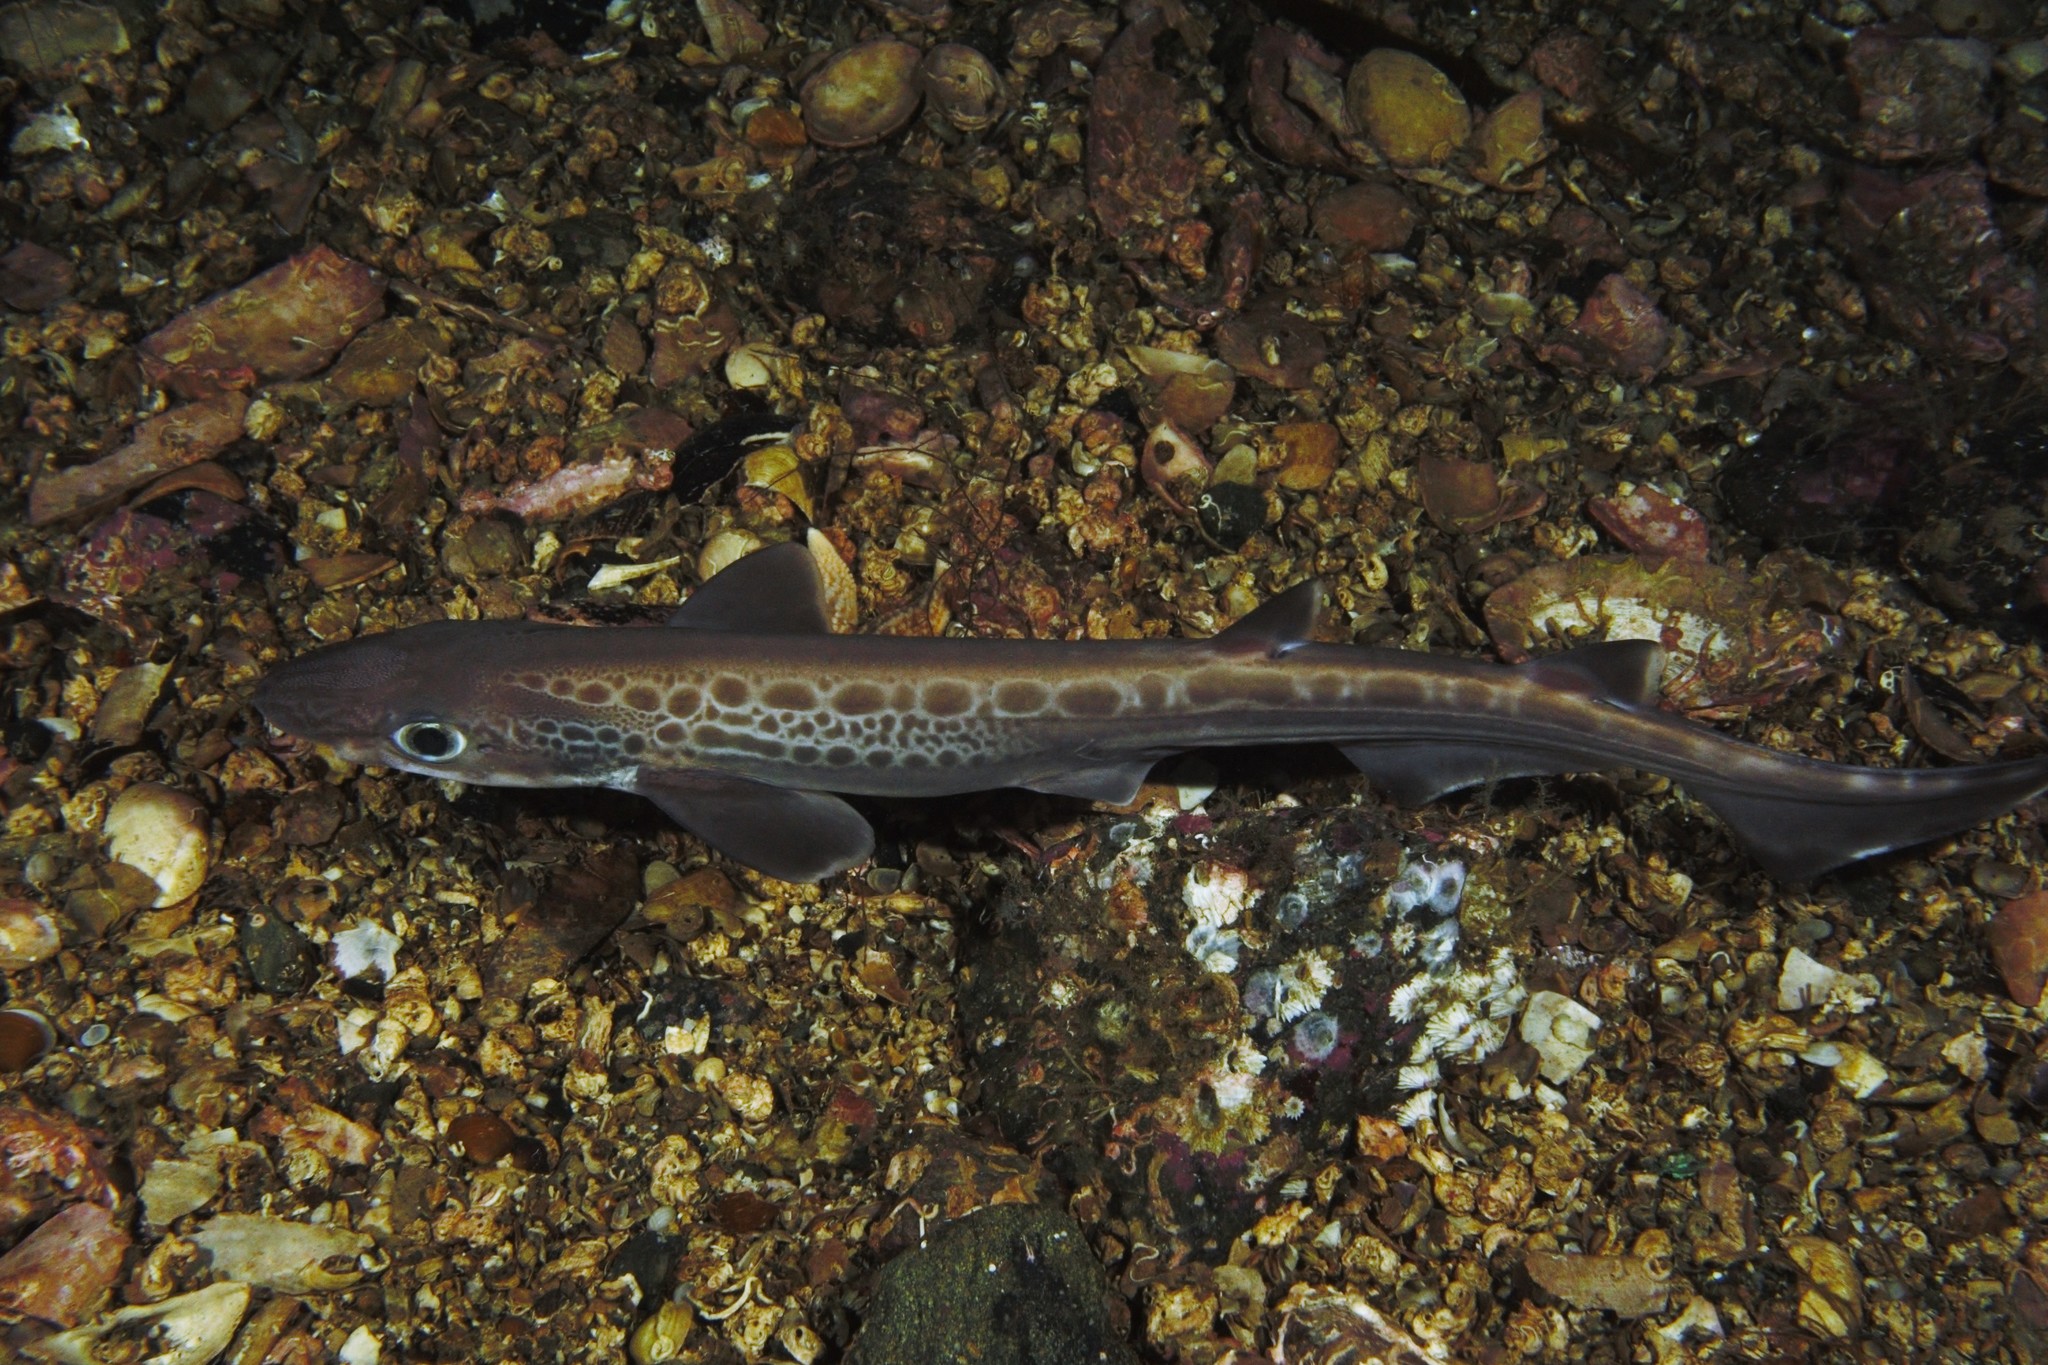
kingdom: Animalia
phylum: Chordata
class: Elasmobranchii
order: Carcharhiniformes
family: Scyliorhinidae
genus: Galeus
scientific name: Galeus melastomus
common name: Black-mouthed dogfish
